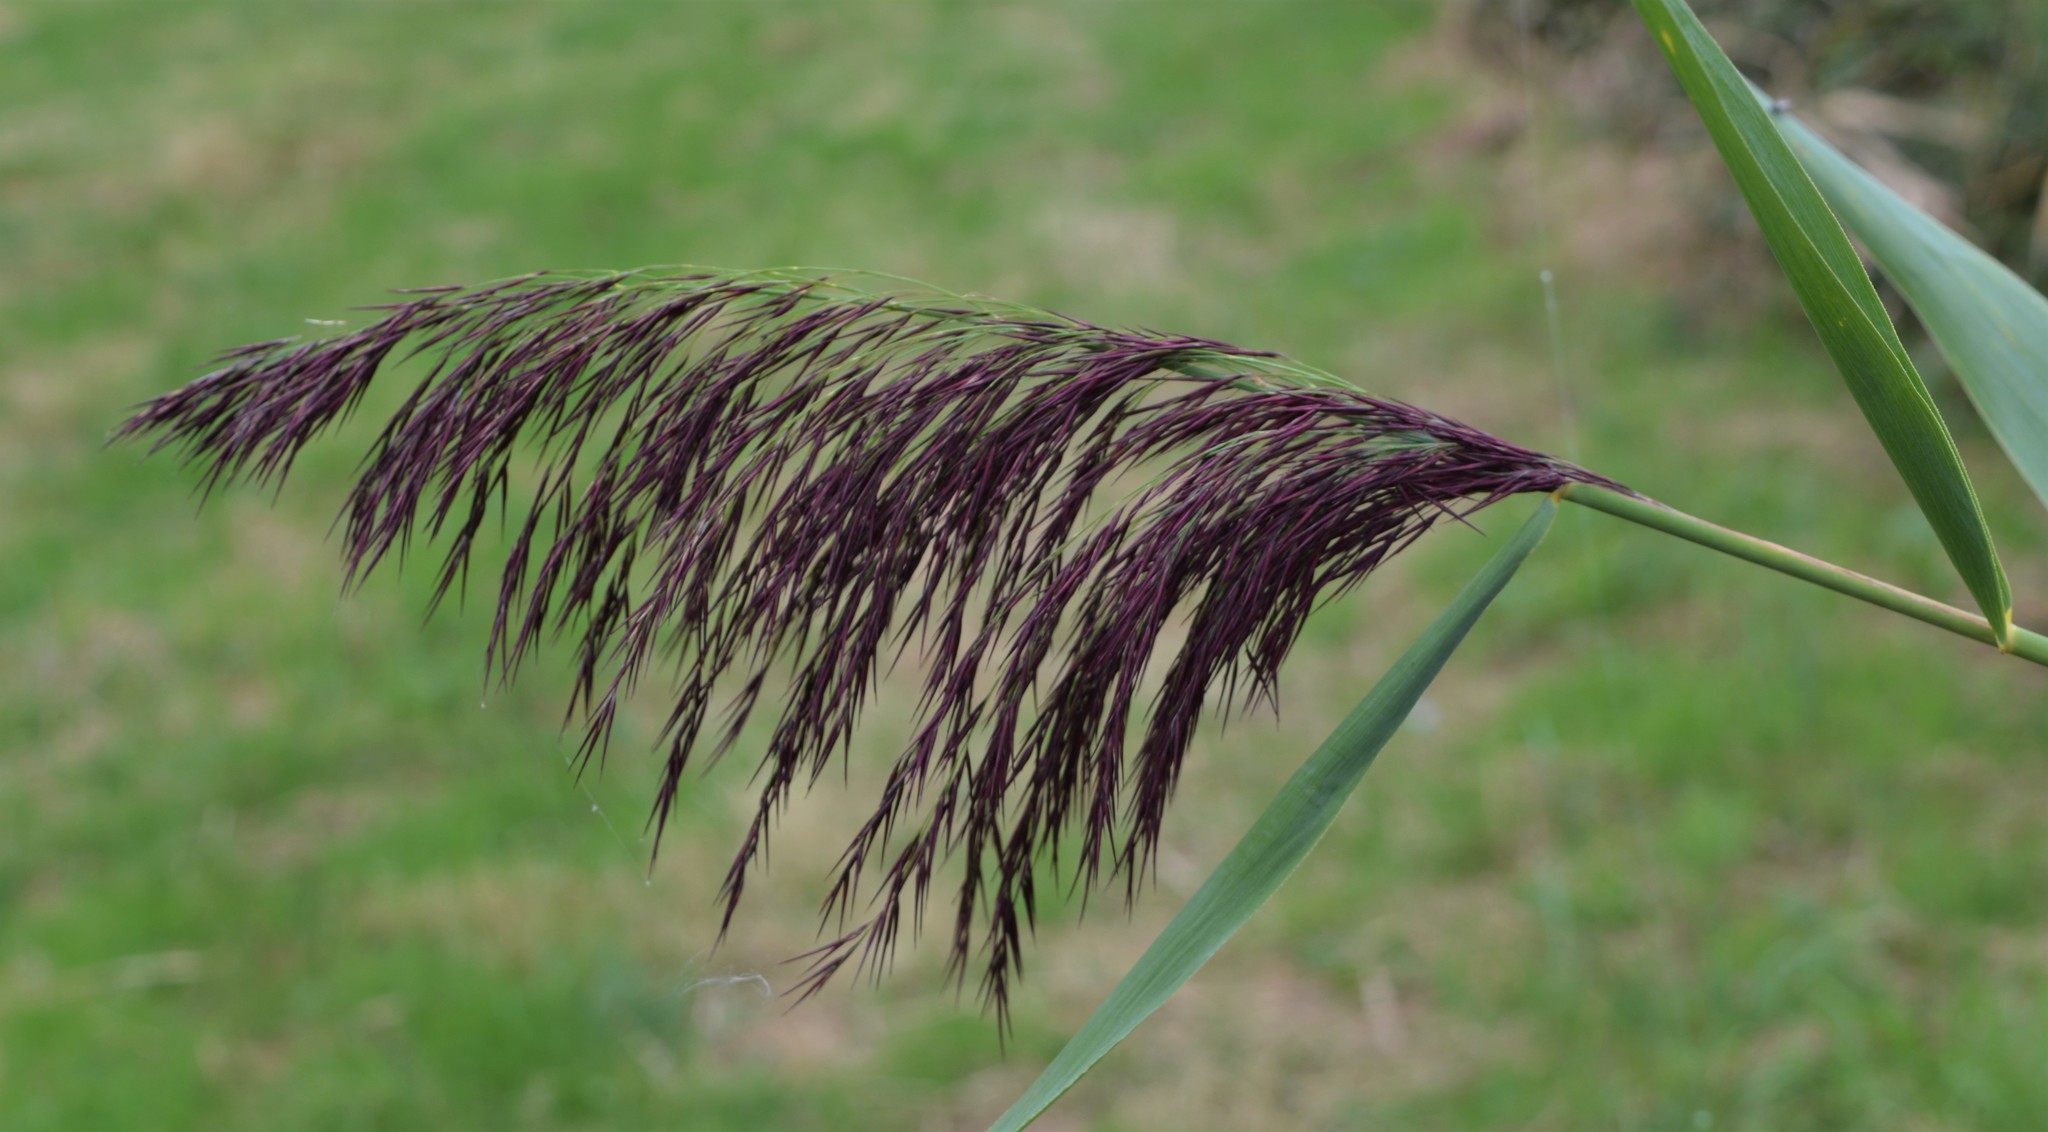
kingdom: Plantae
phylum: Tracheophyta
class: Liliopsida
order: Poales
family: Poaceae
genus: Phragmites
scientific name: Phragmites australis
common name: Common reed
